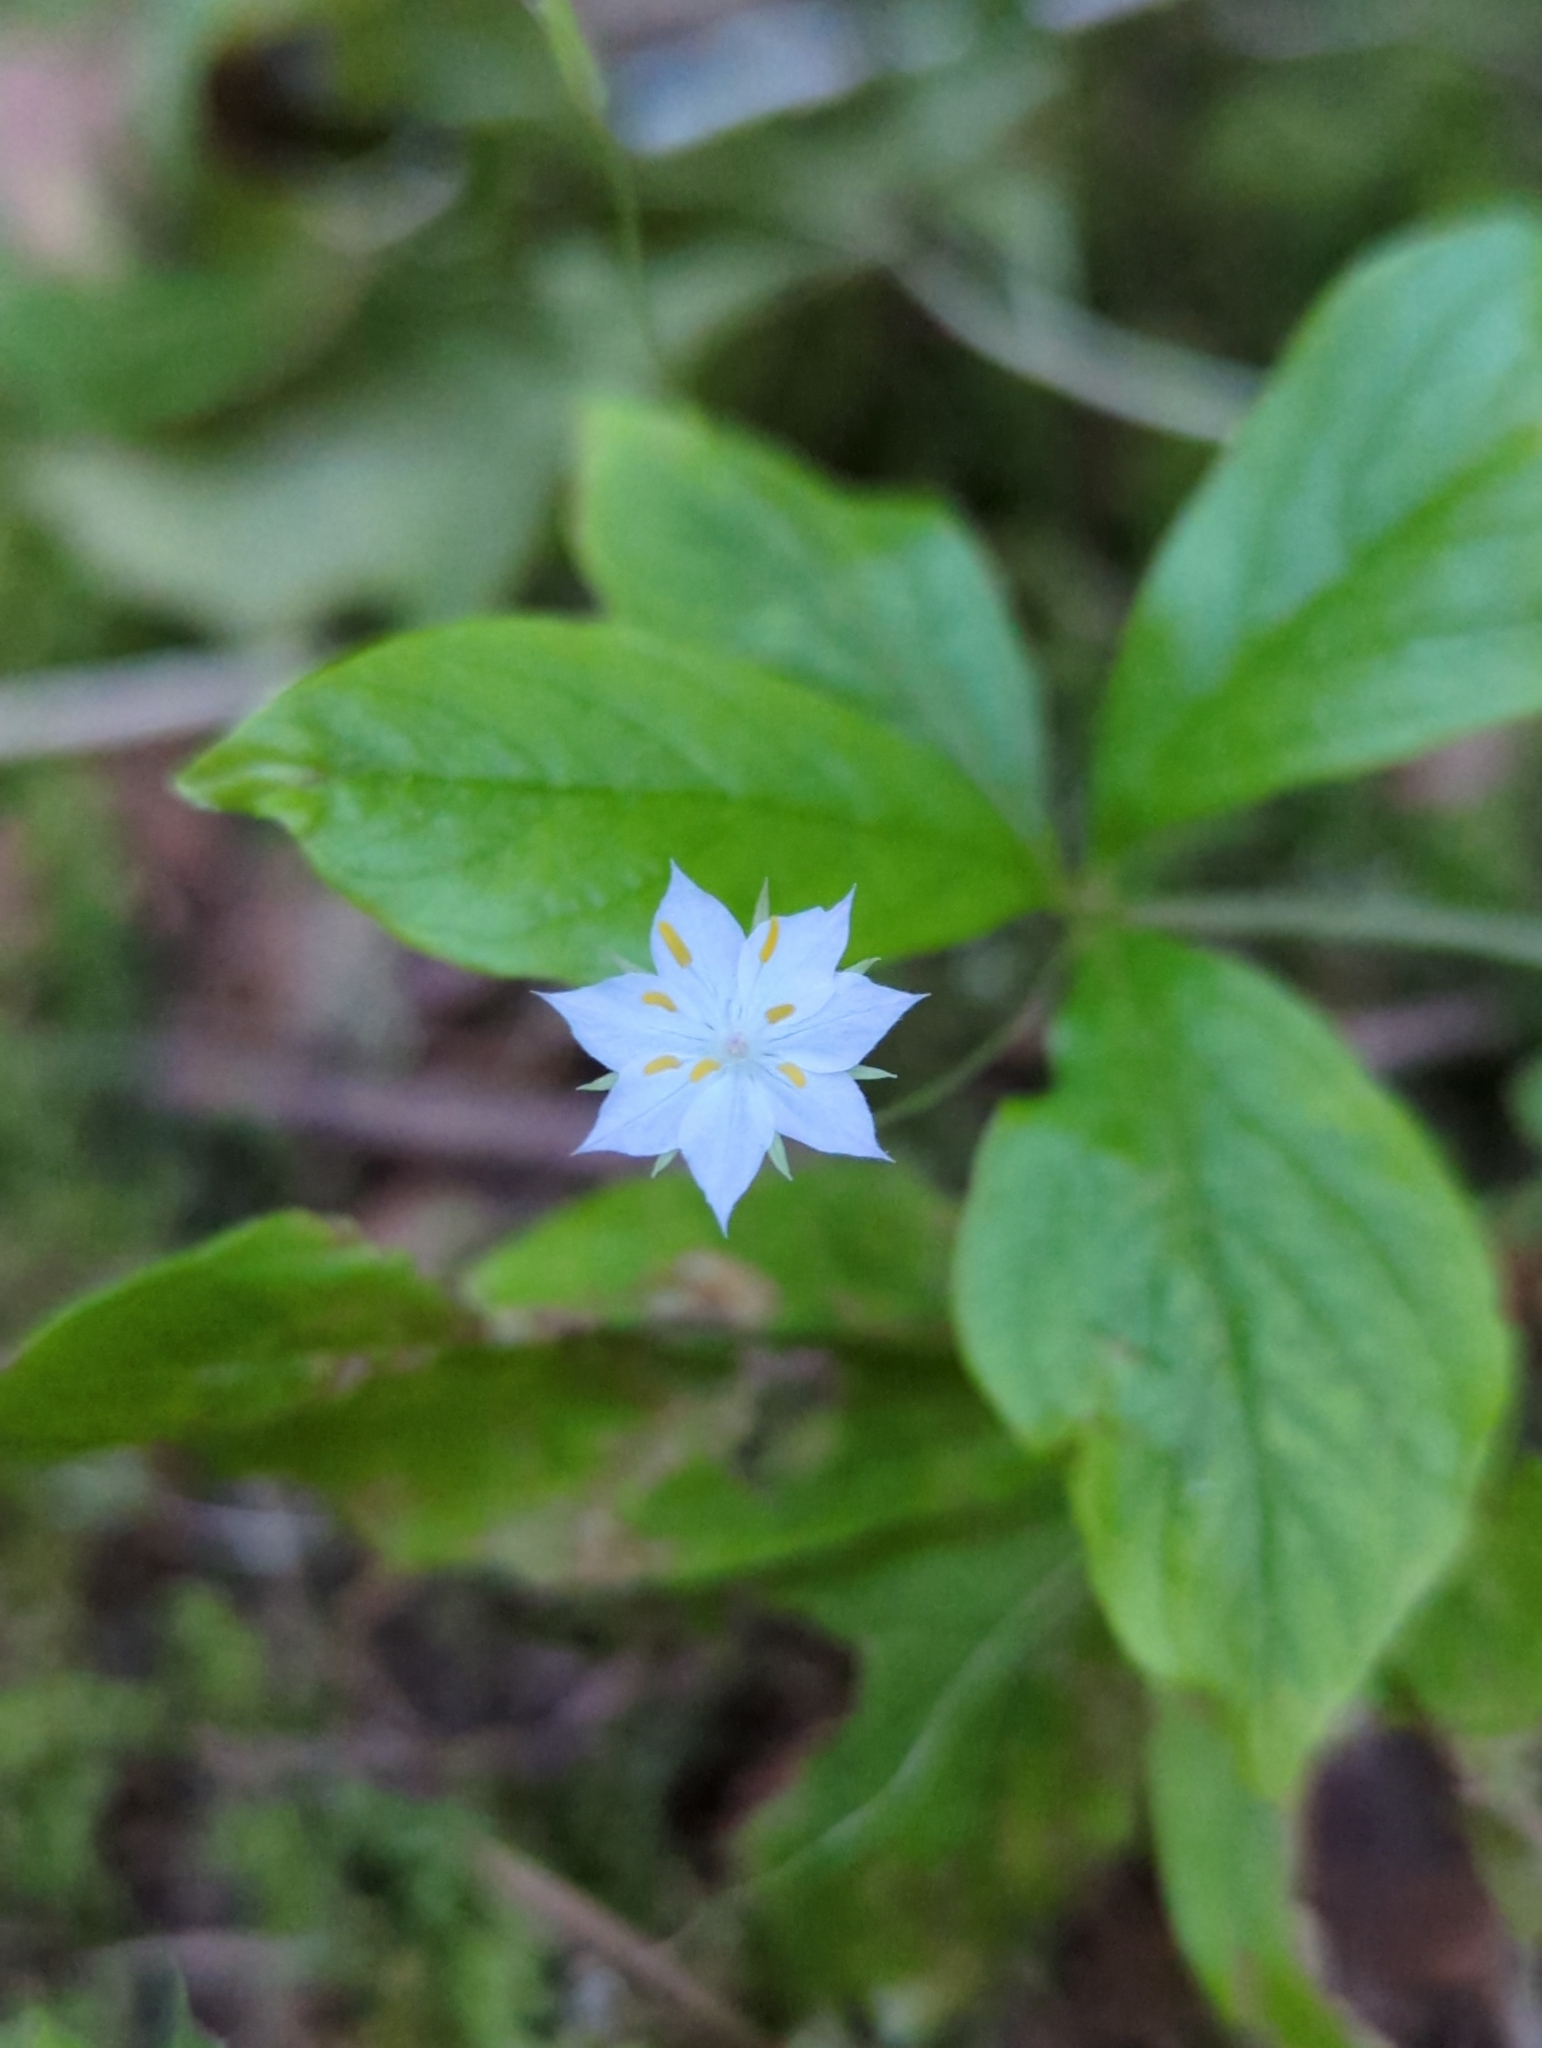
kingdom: Plantae
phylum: Tracheophyta
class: Magnoliopsida
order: Ericales
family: Primulaceae
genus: Lysimachia
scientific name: Lysimachia latifolia
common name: Pacific starflower
